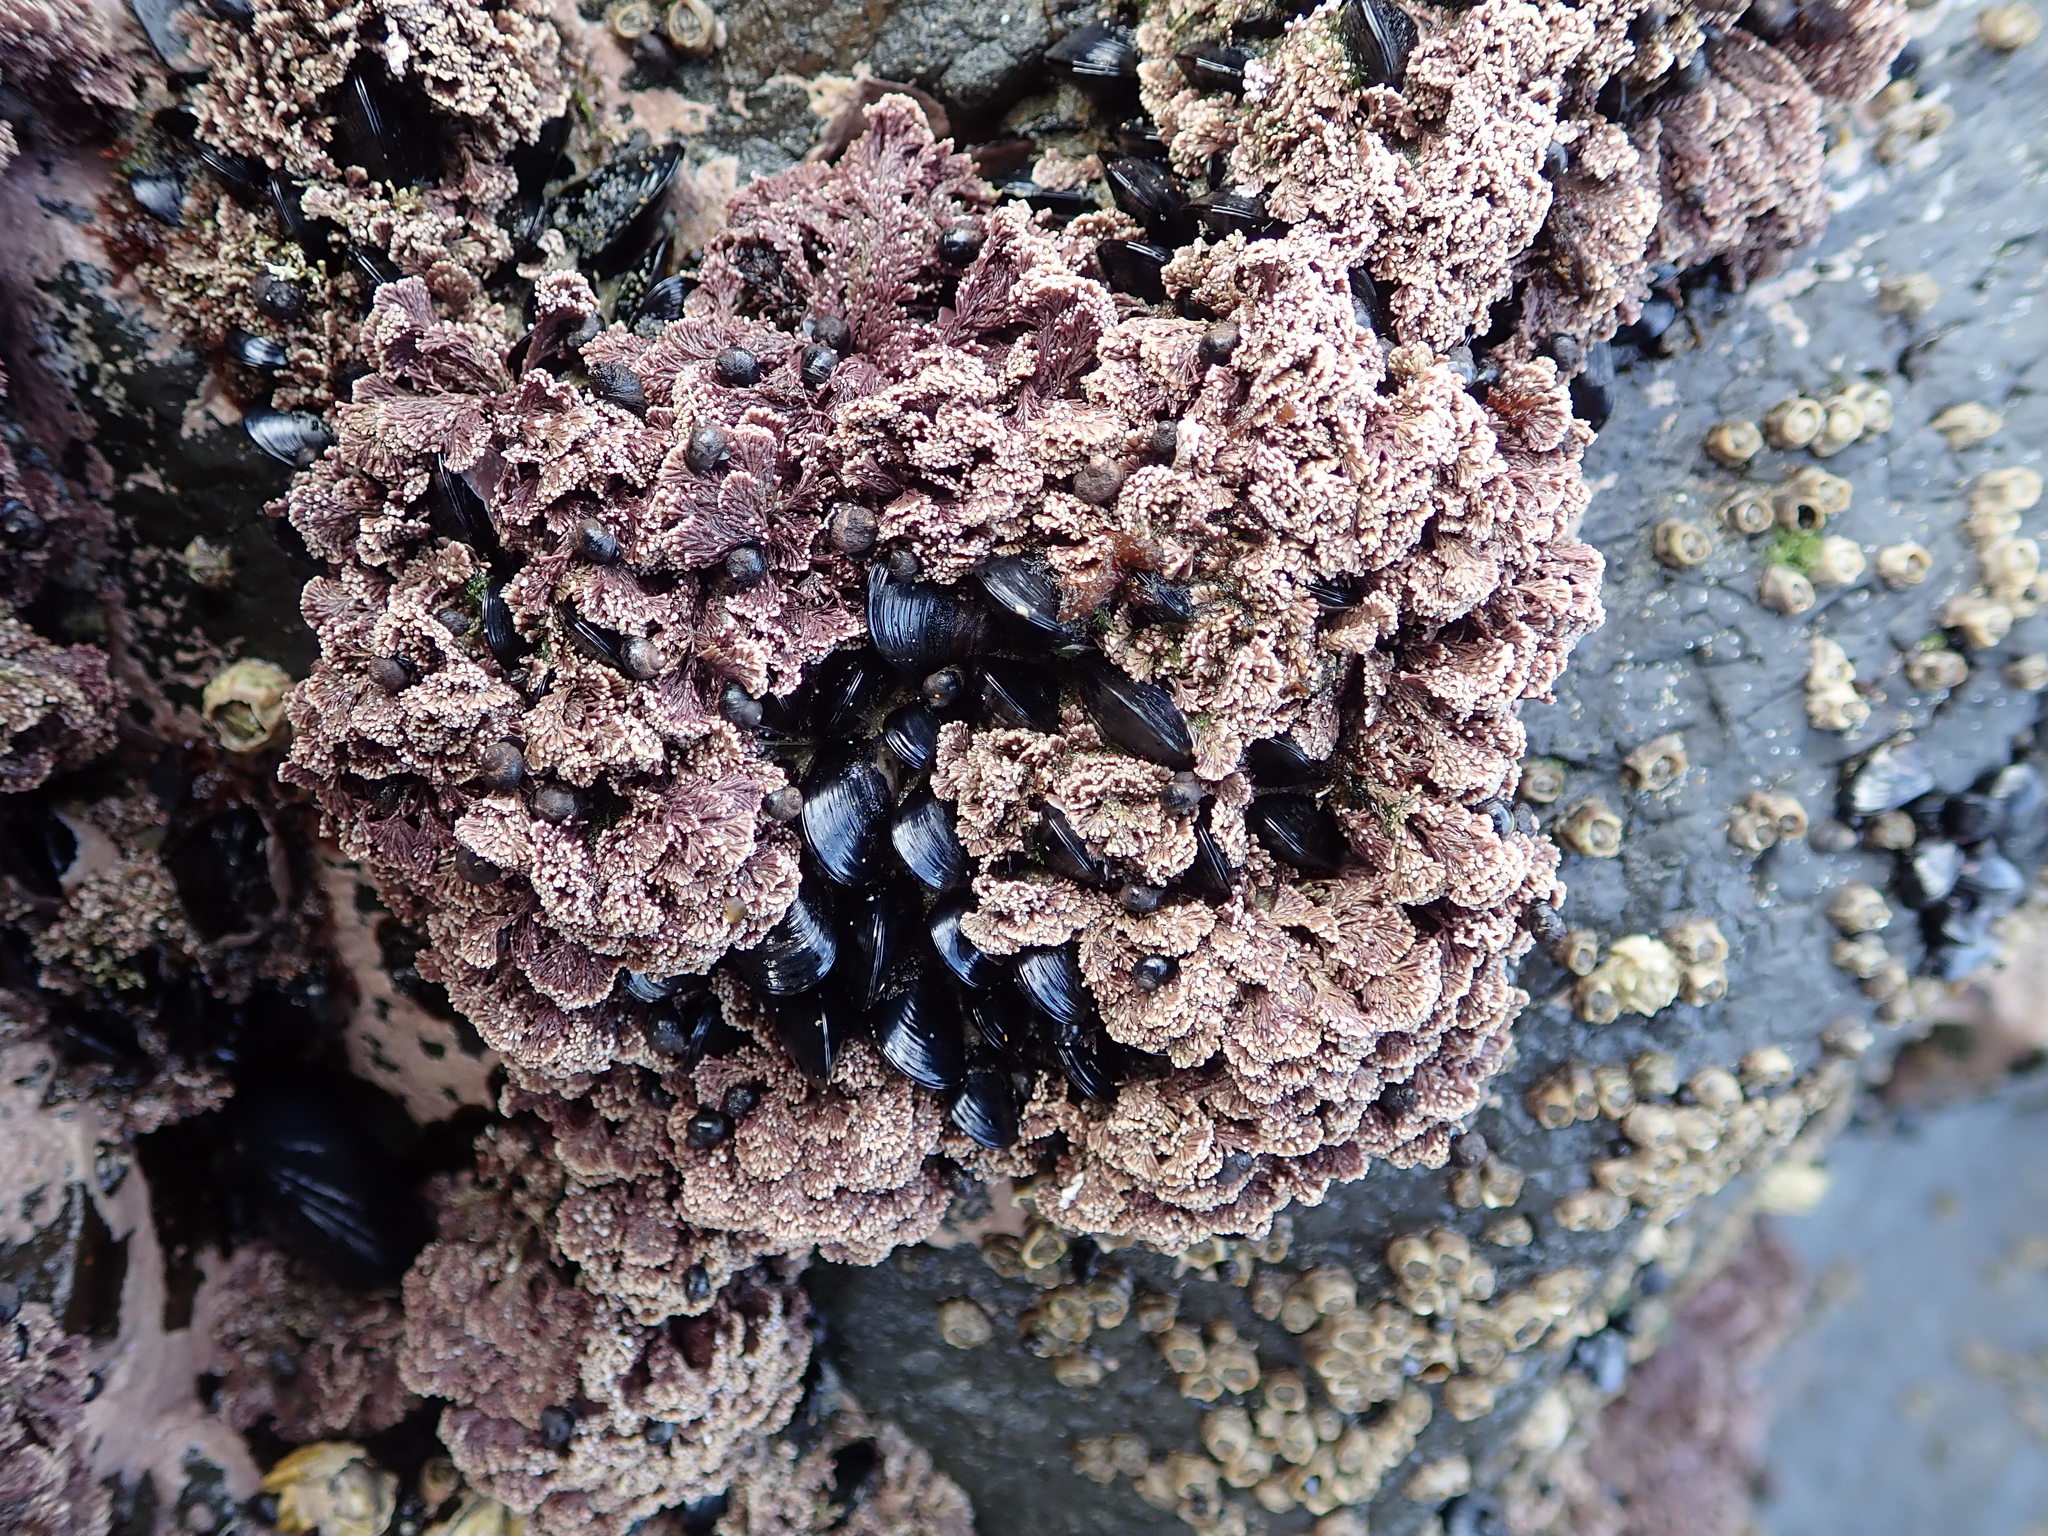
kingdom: Plantae
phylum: Rhodophyta
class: Florideophyceae
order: Corallinales
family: Corallinaceae
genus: Corallina
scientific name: Corallina officinalis
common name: Coral weed
